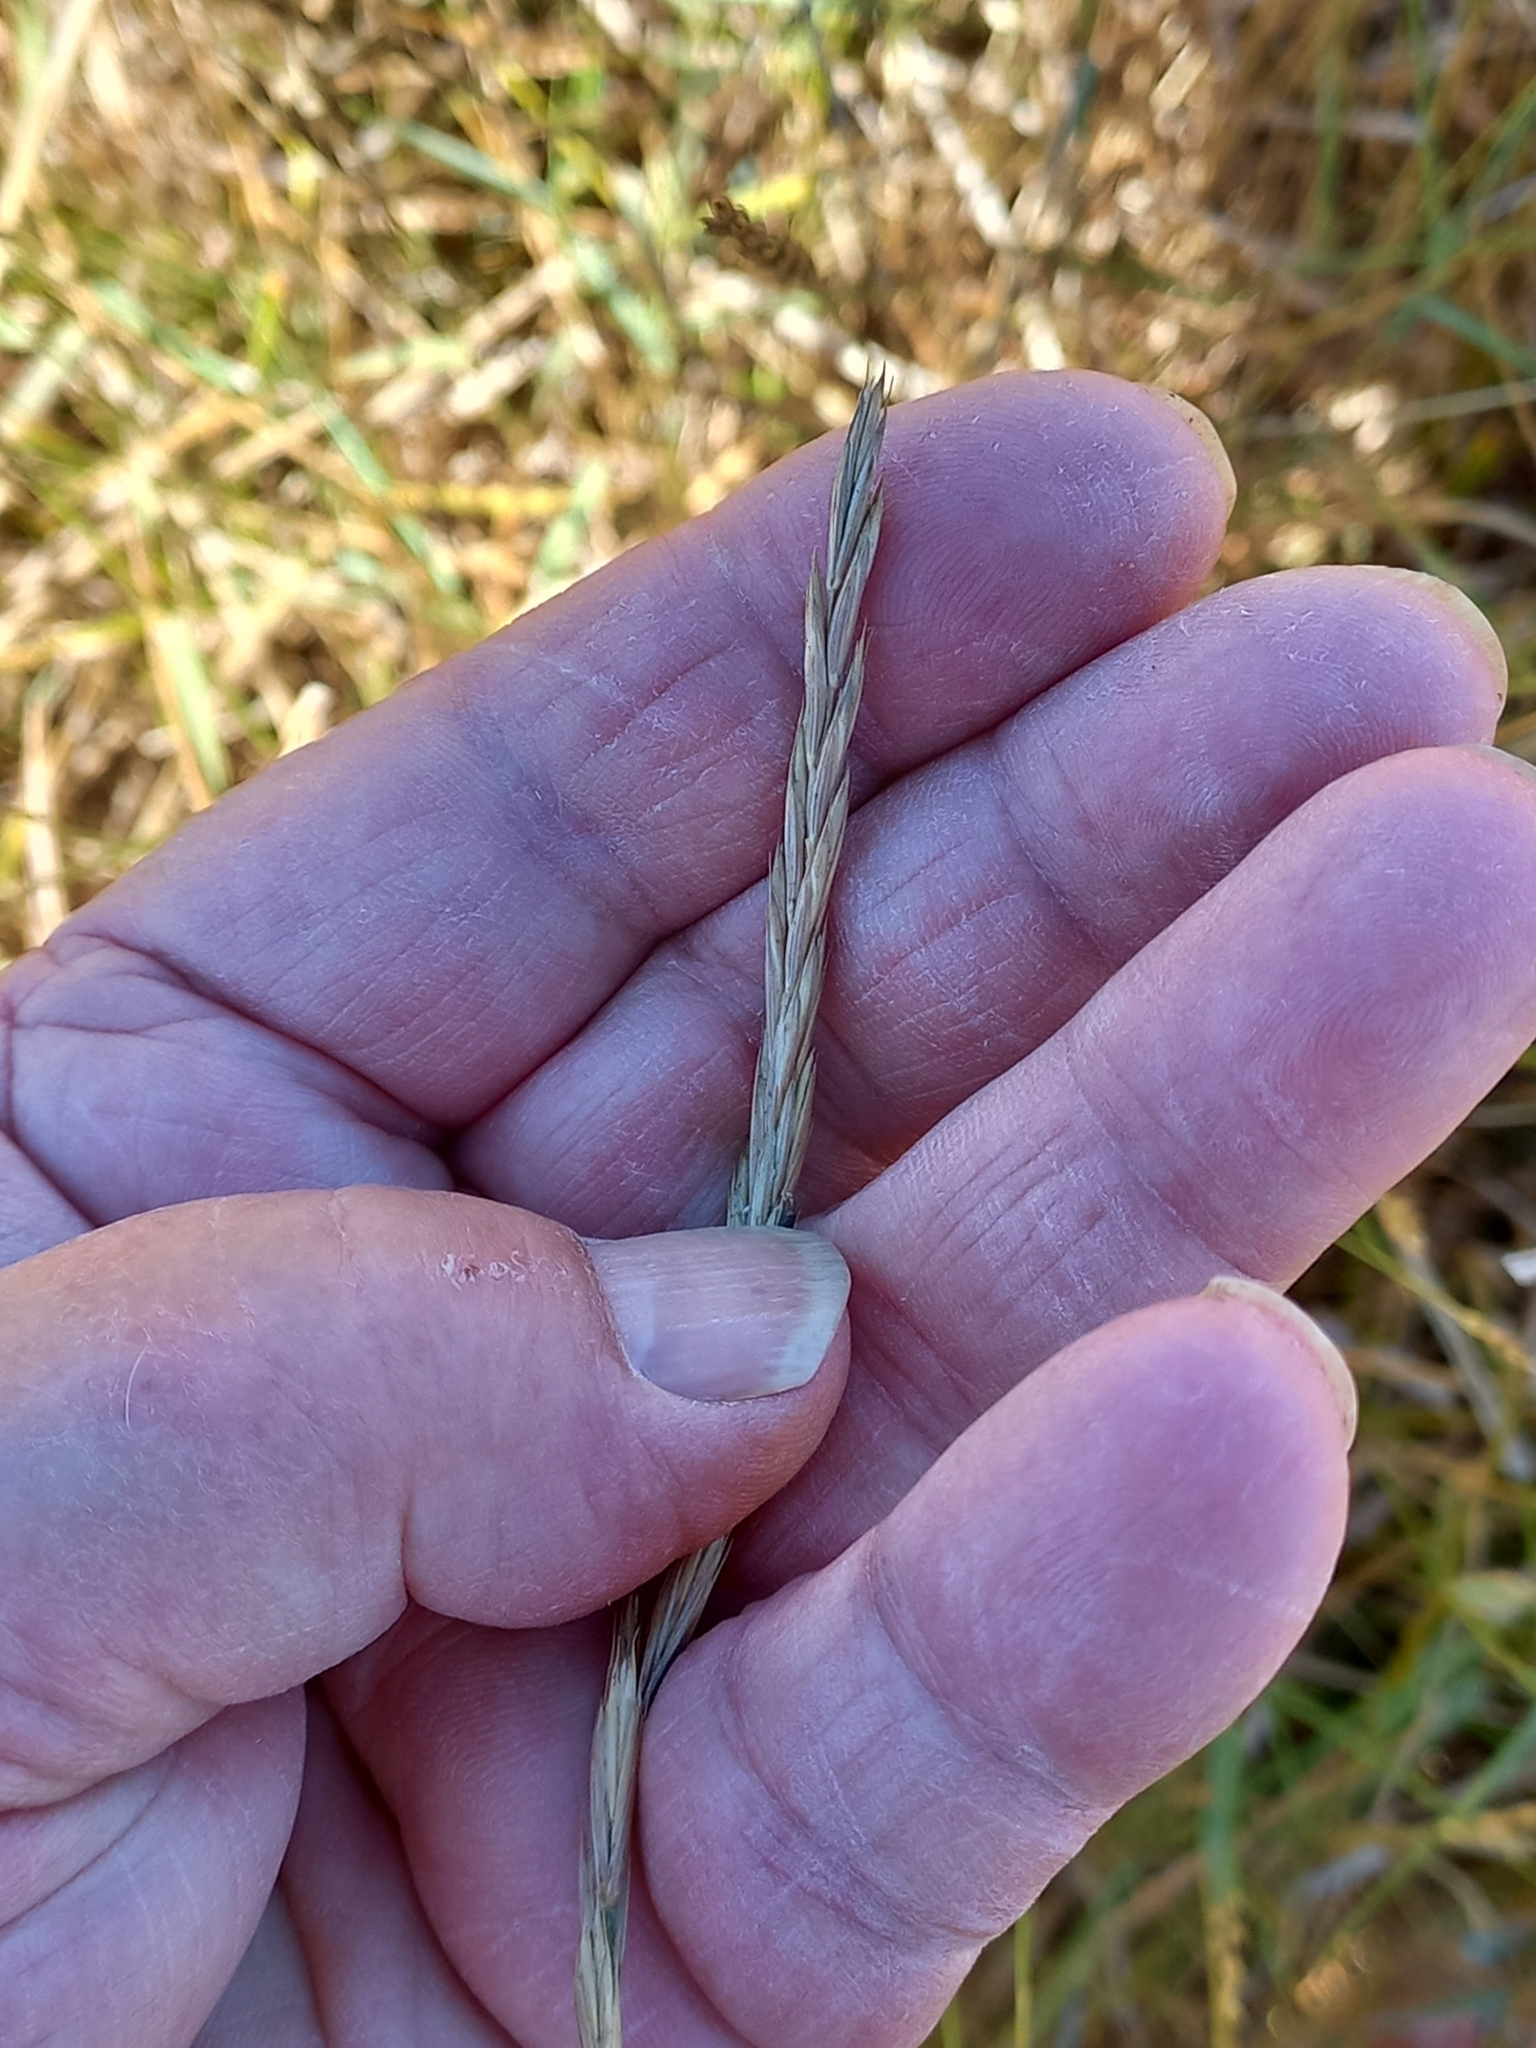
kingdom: Plantae
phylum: Tracheophyta
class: Liliopsida
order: Poales
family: Poaceae
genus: Elymus
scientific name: Elymus repens
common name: Quackgrass
